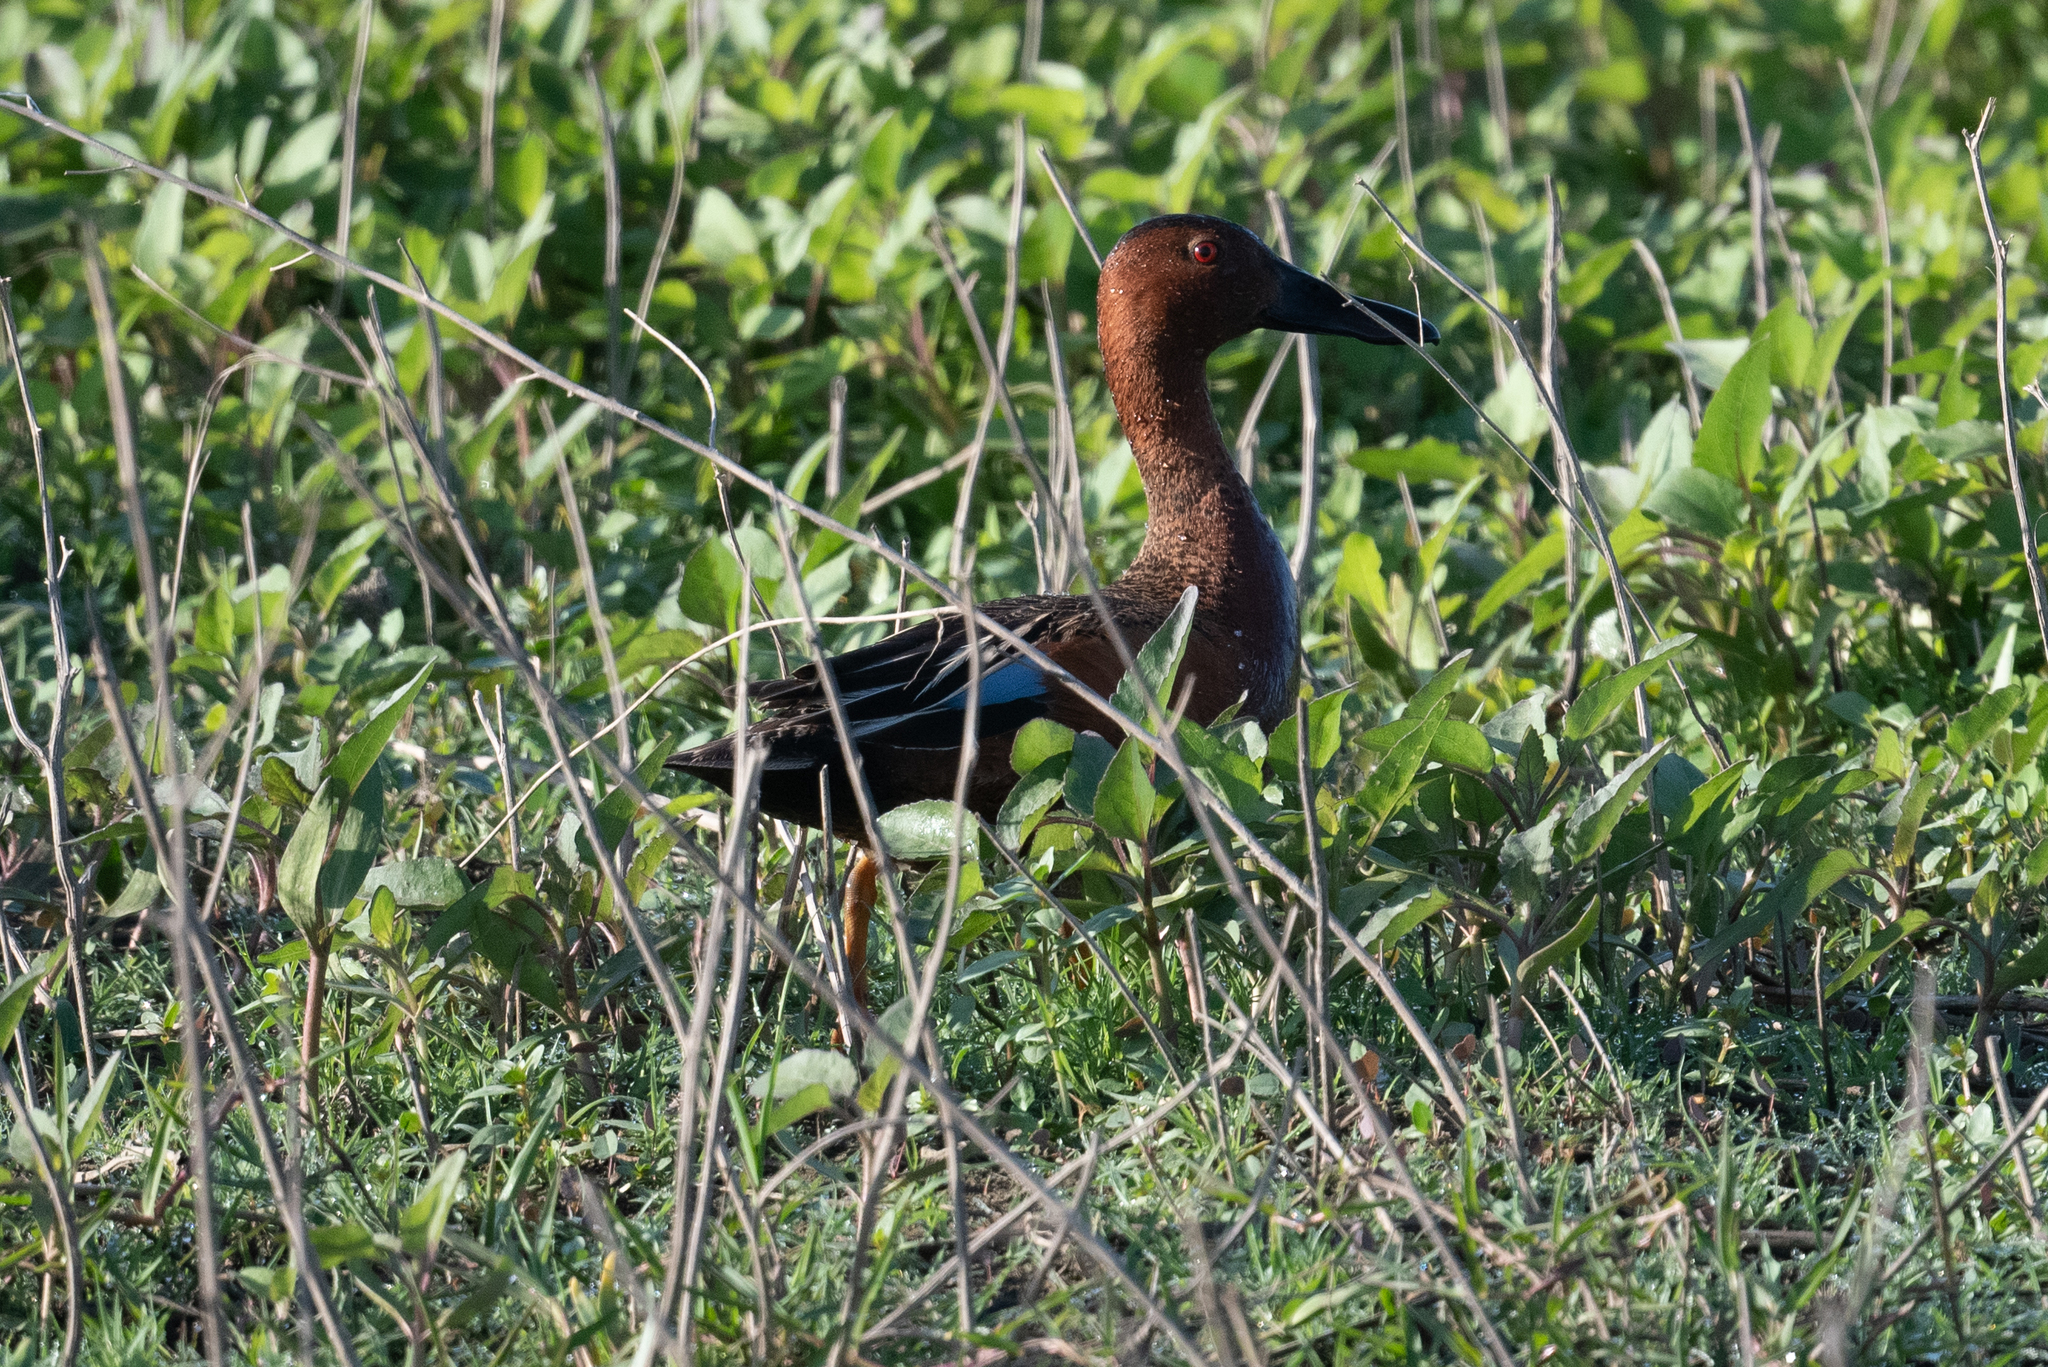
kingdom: Animalia
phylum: Chordata
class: Aves
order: Anseriformes
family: Anatidae
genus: Spatula
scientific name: Spatula cyanoptera
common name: Cinnamon teal
